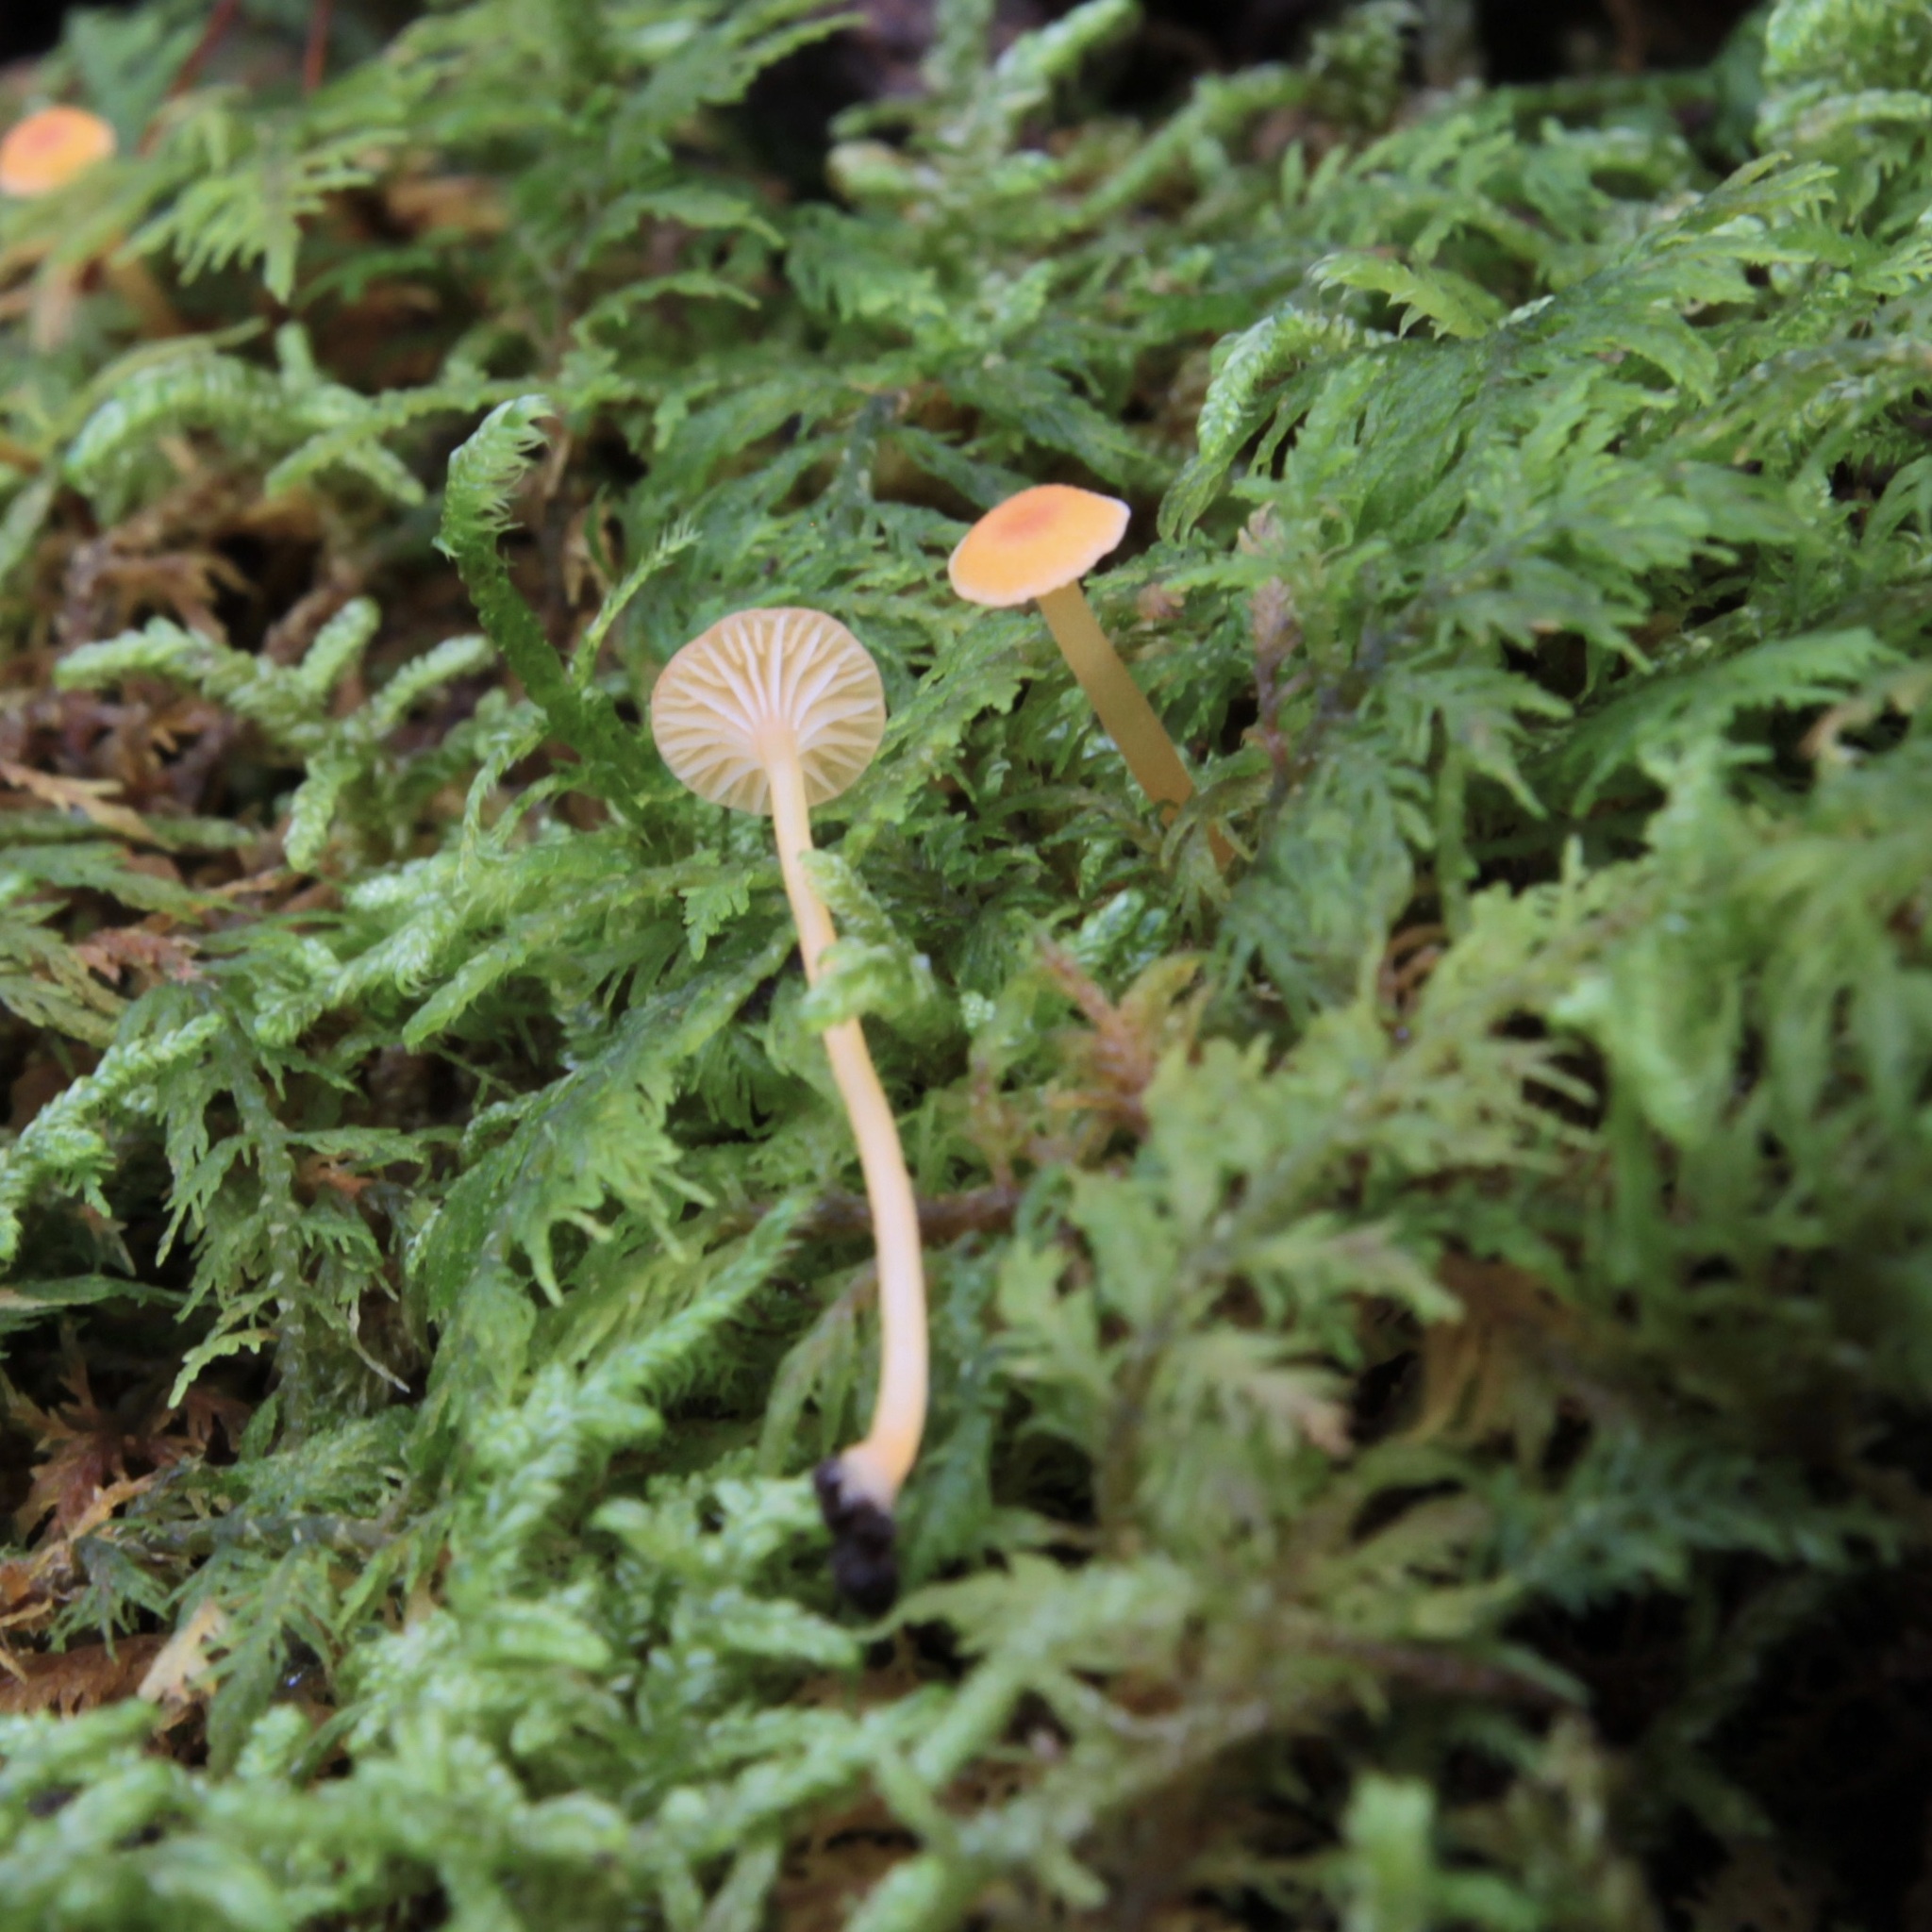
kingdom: Fungi
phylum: Basidiomycota
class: Agaricomycetes
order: Hymenochaetales
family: Rickenellaceae
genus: Rickenella
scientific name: Rickenella fibula
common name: Orange mosscap
